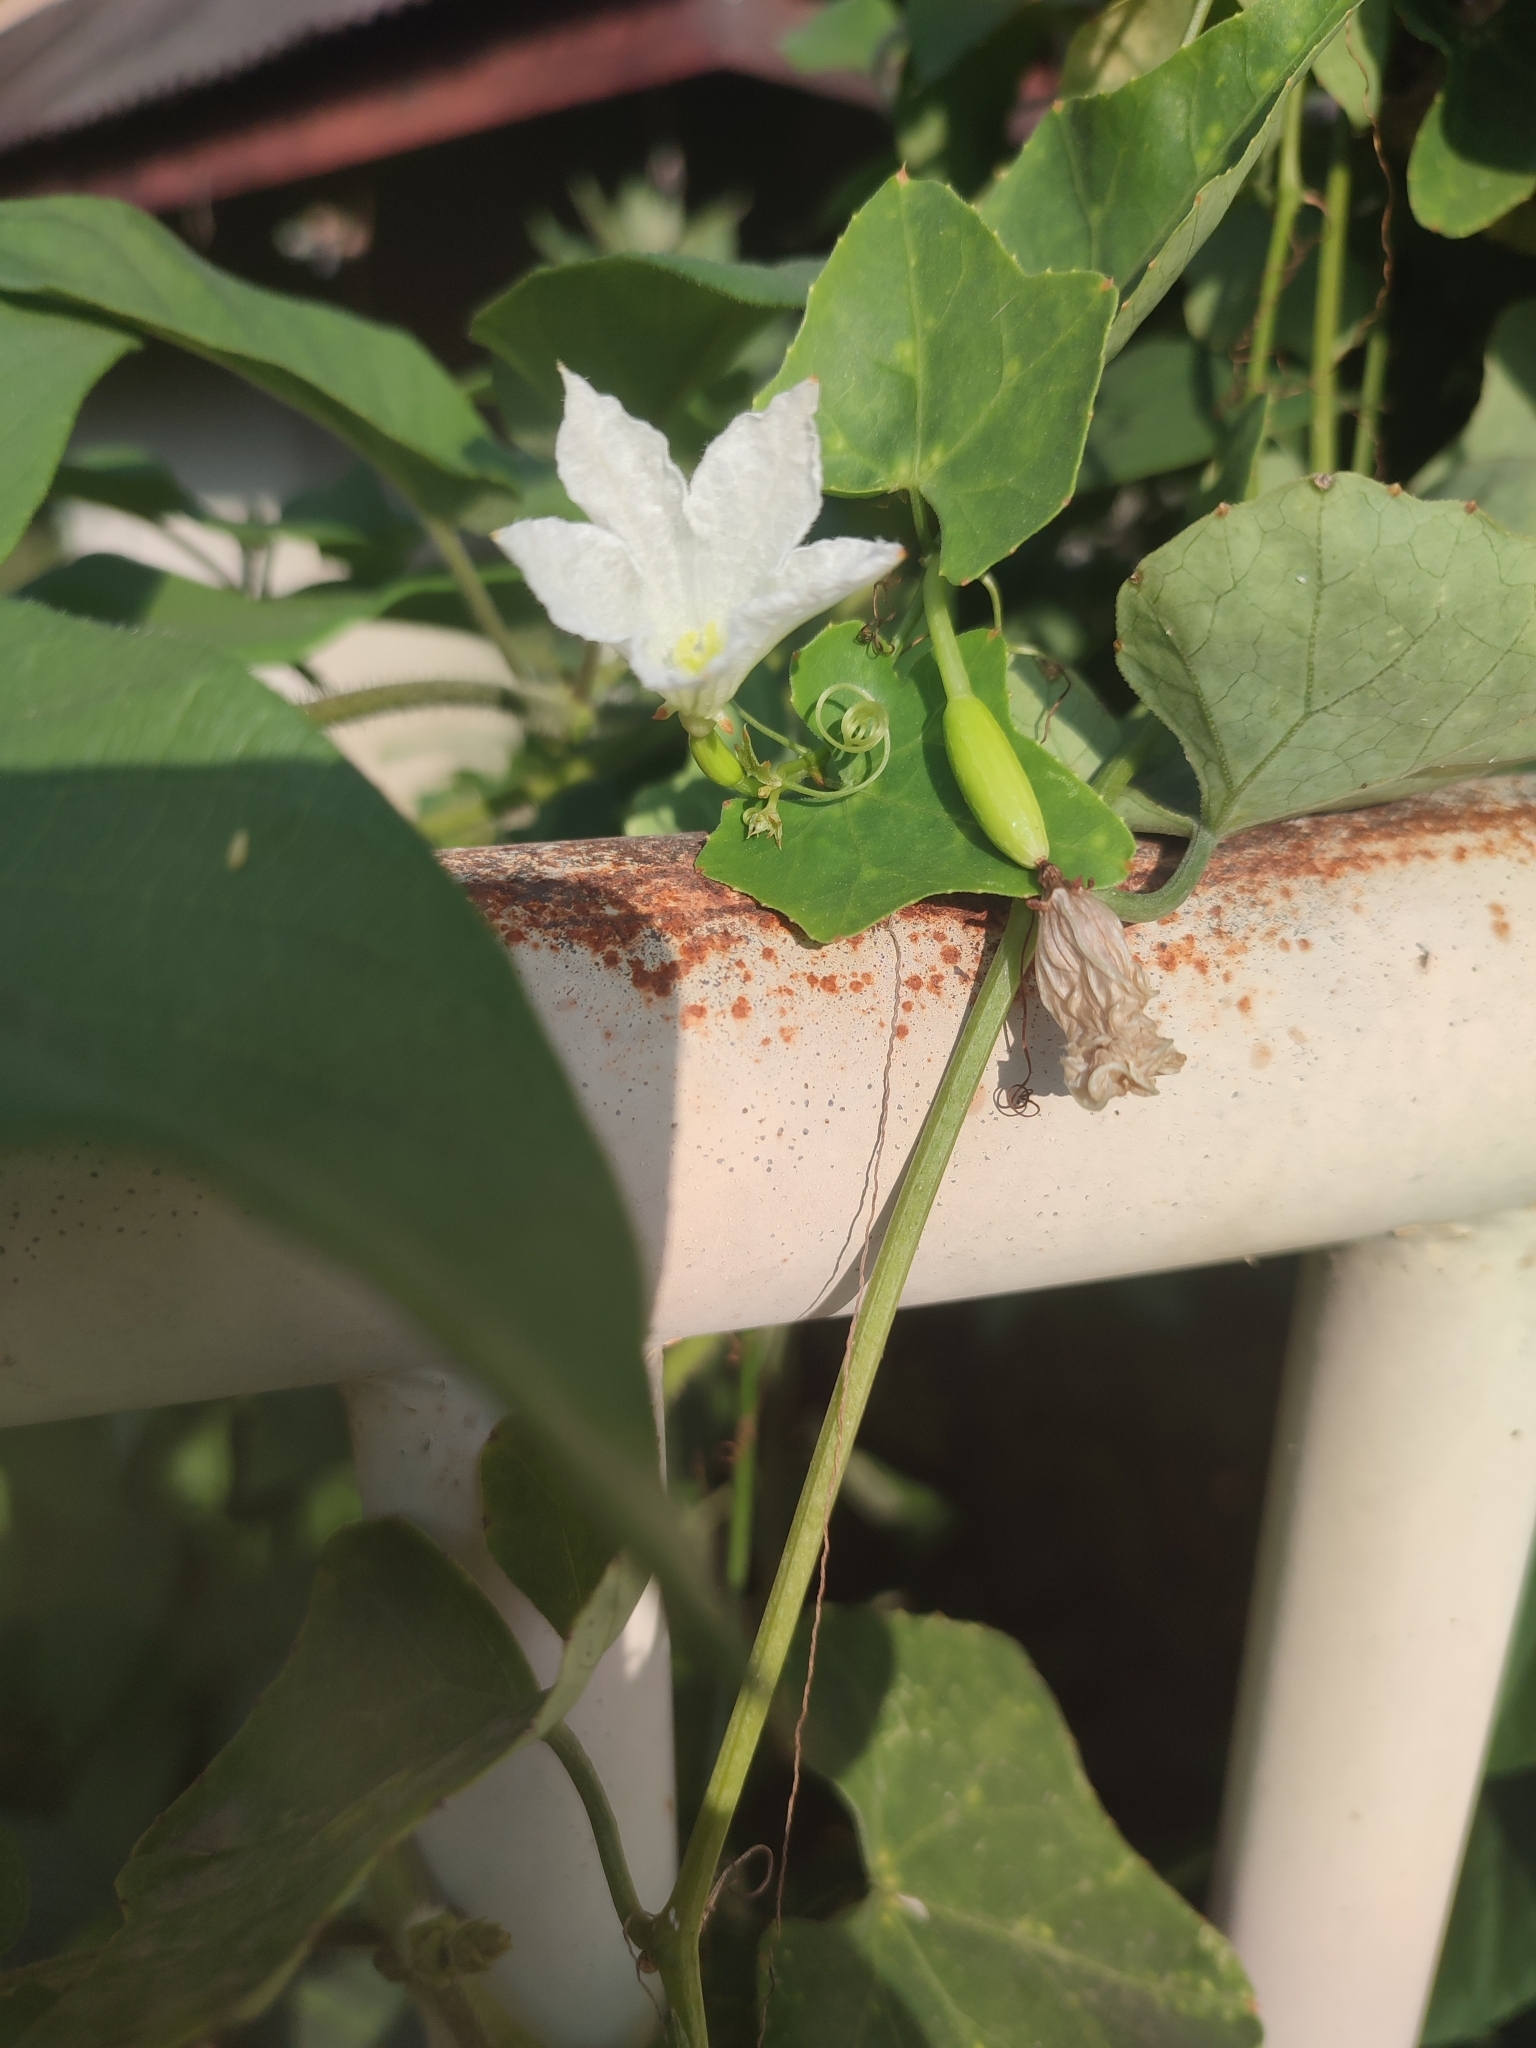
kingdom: Plantae
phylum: Tracheophyta
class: Magnoliopsida
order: Cucurbitales
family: Cucurbitaceae
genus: Coccinia
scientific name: Coccinia grandis
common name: Ivy gourd
